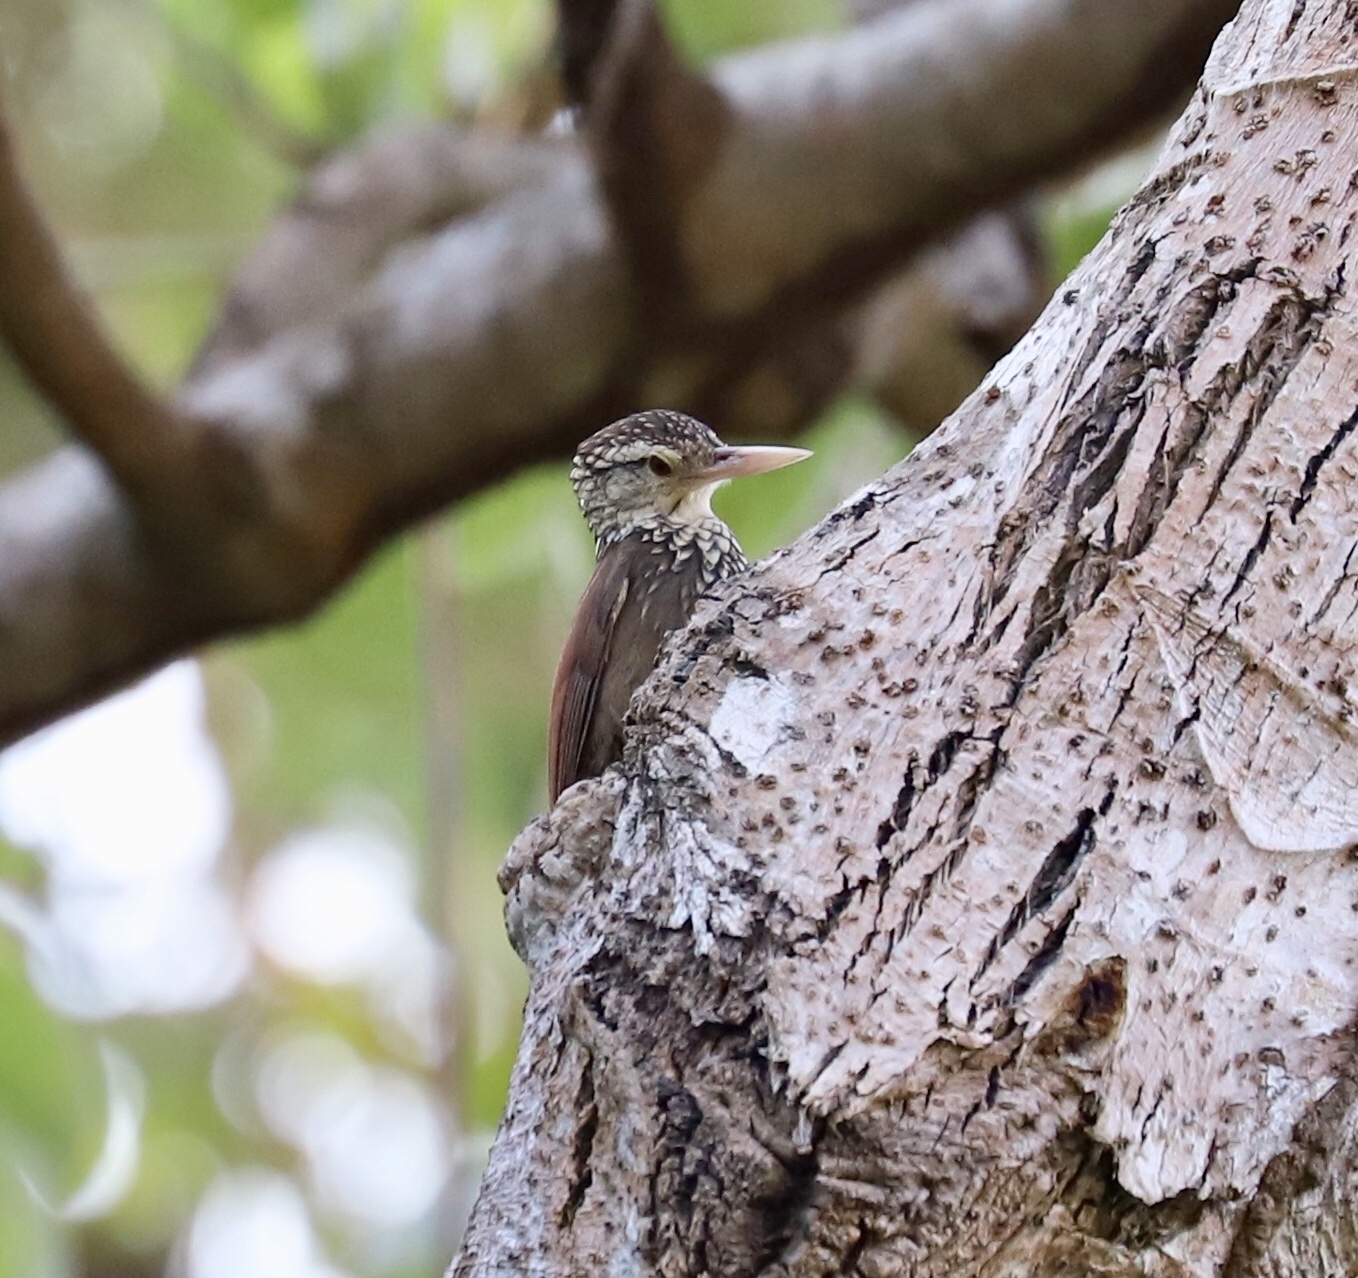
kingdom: Animalia
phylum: Chordata
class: Aves
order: Passeriformes
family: Furnariidae
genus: Xiphorhynchus
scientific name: Xiphorhynchus picus
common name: Straight-billed woodcreeper
